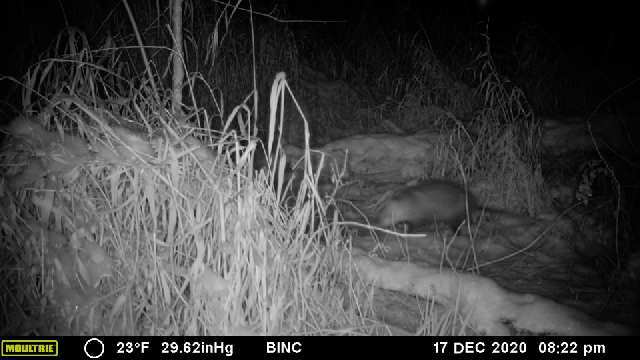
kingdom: Animalia
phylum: Chordata
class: Mammalia
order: Didelphimorphia
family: Didelphidae
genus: Didelphis
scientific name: Didelphis virginiana
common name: Virginia opossum
